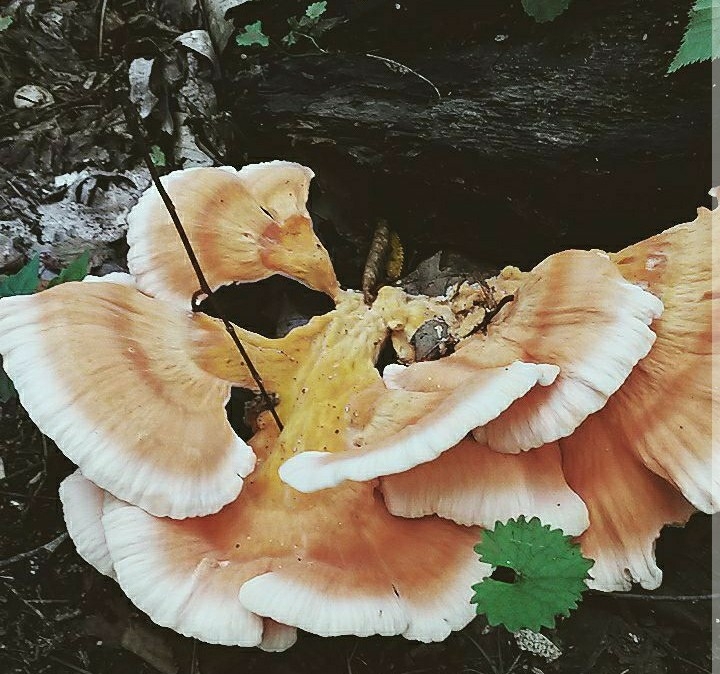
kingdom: Fungi
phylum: Basidiomycota
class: Agaricomycetes
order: Polyporales
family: Laetiporaceae
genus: Laetiporus
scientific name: Laetiporus sulphureus
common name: Chicken of the woods
